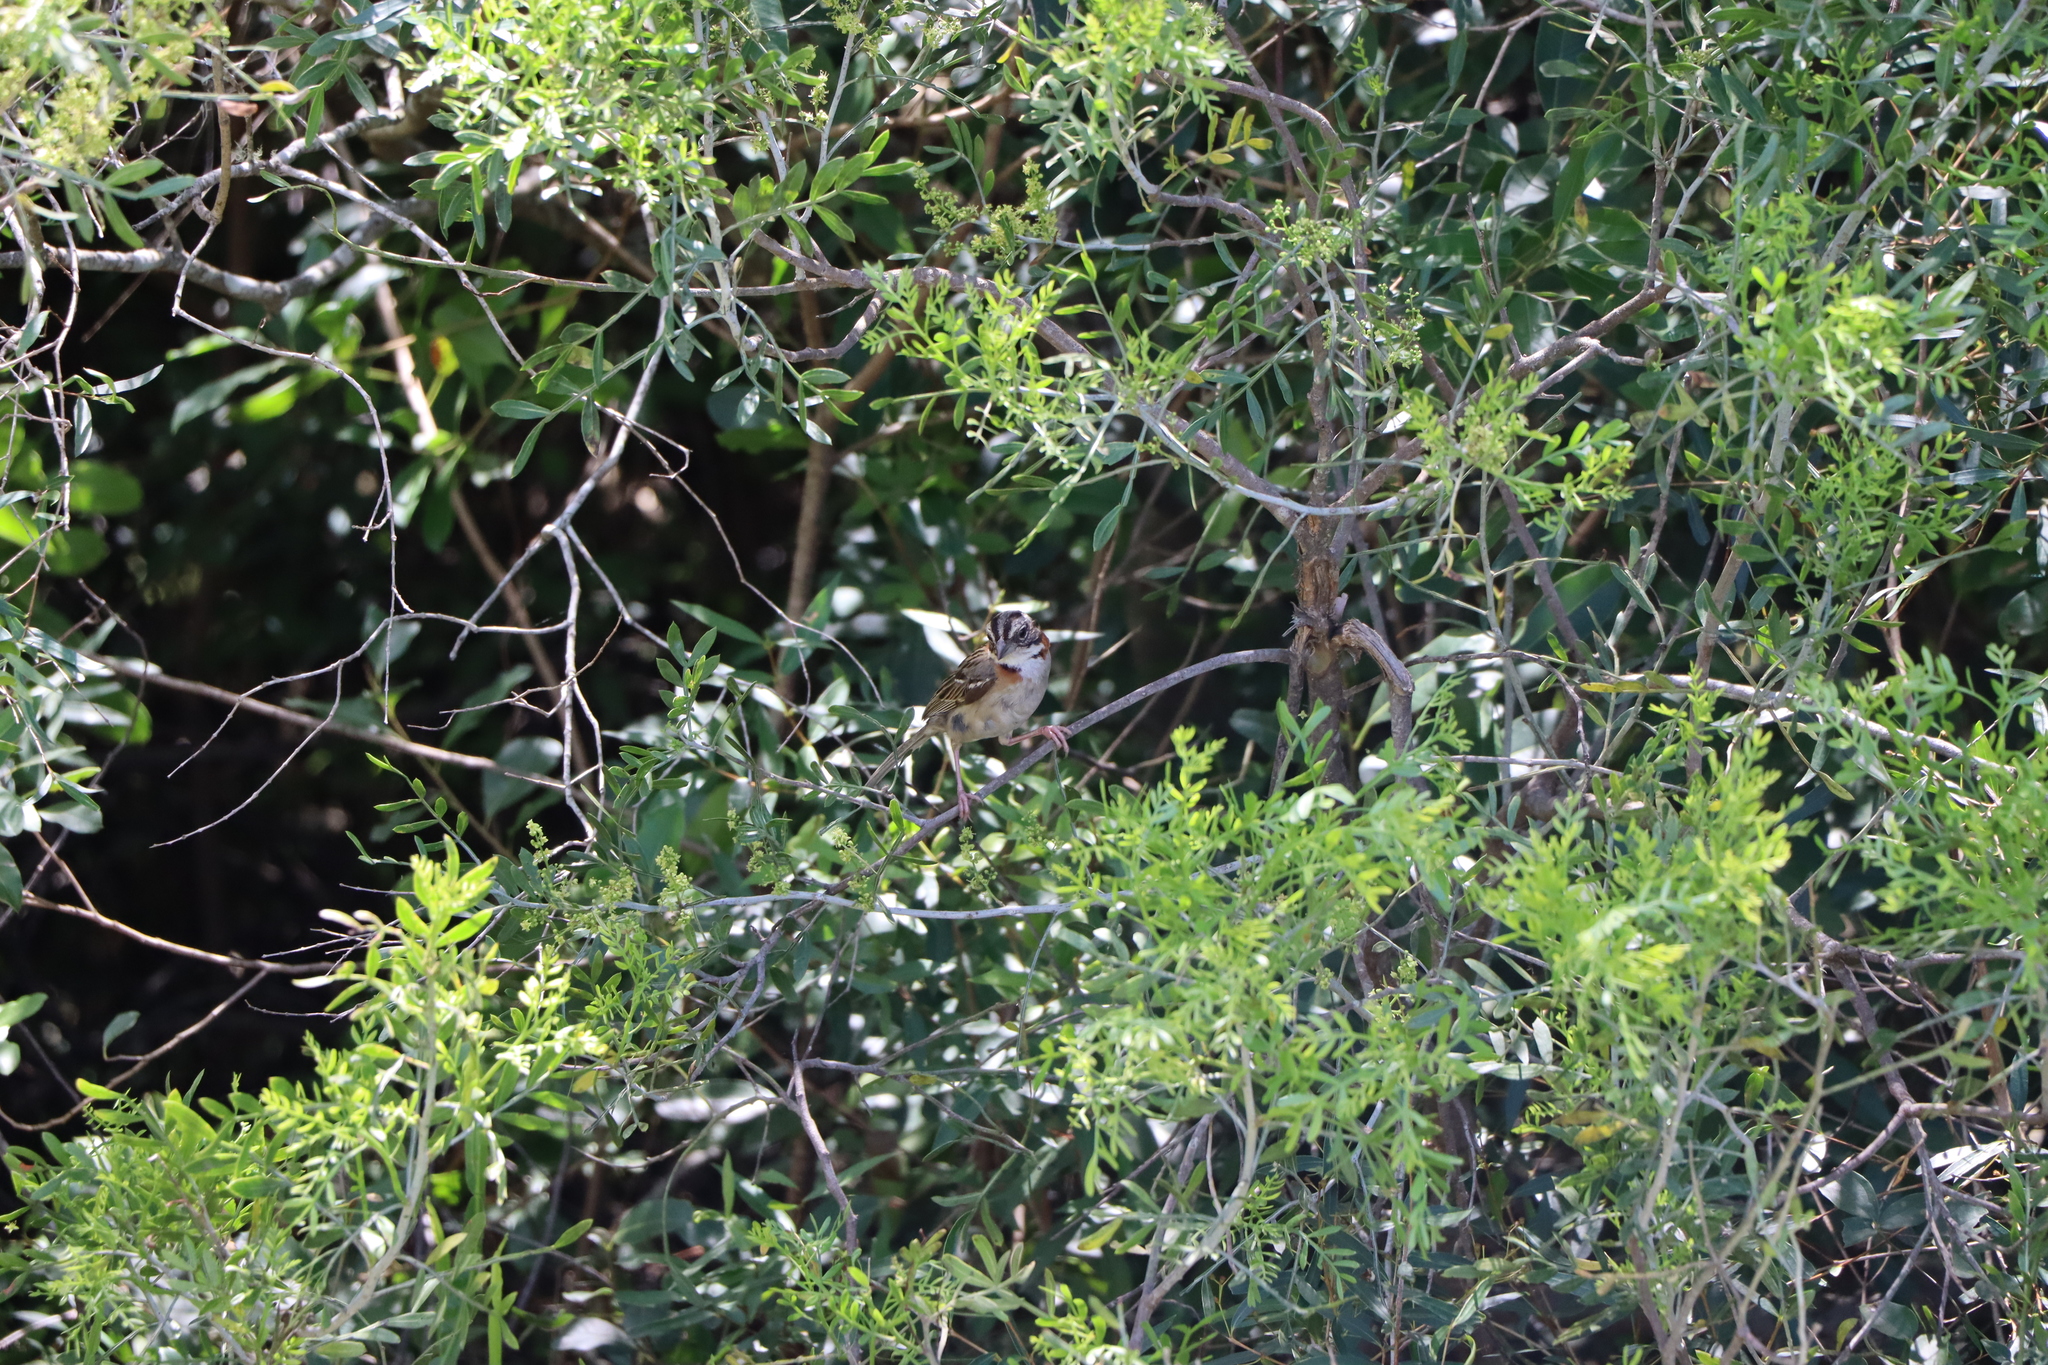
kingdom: Animalia
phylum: Chordata
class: Aves
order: Passeriformes
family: Passerellidae
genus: Zonotrichia
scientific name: Zonotrichia capensis
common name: Rufous-collared sparrow
